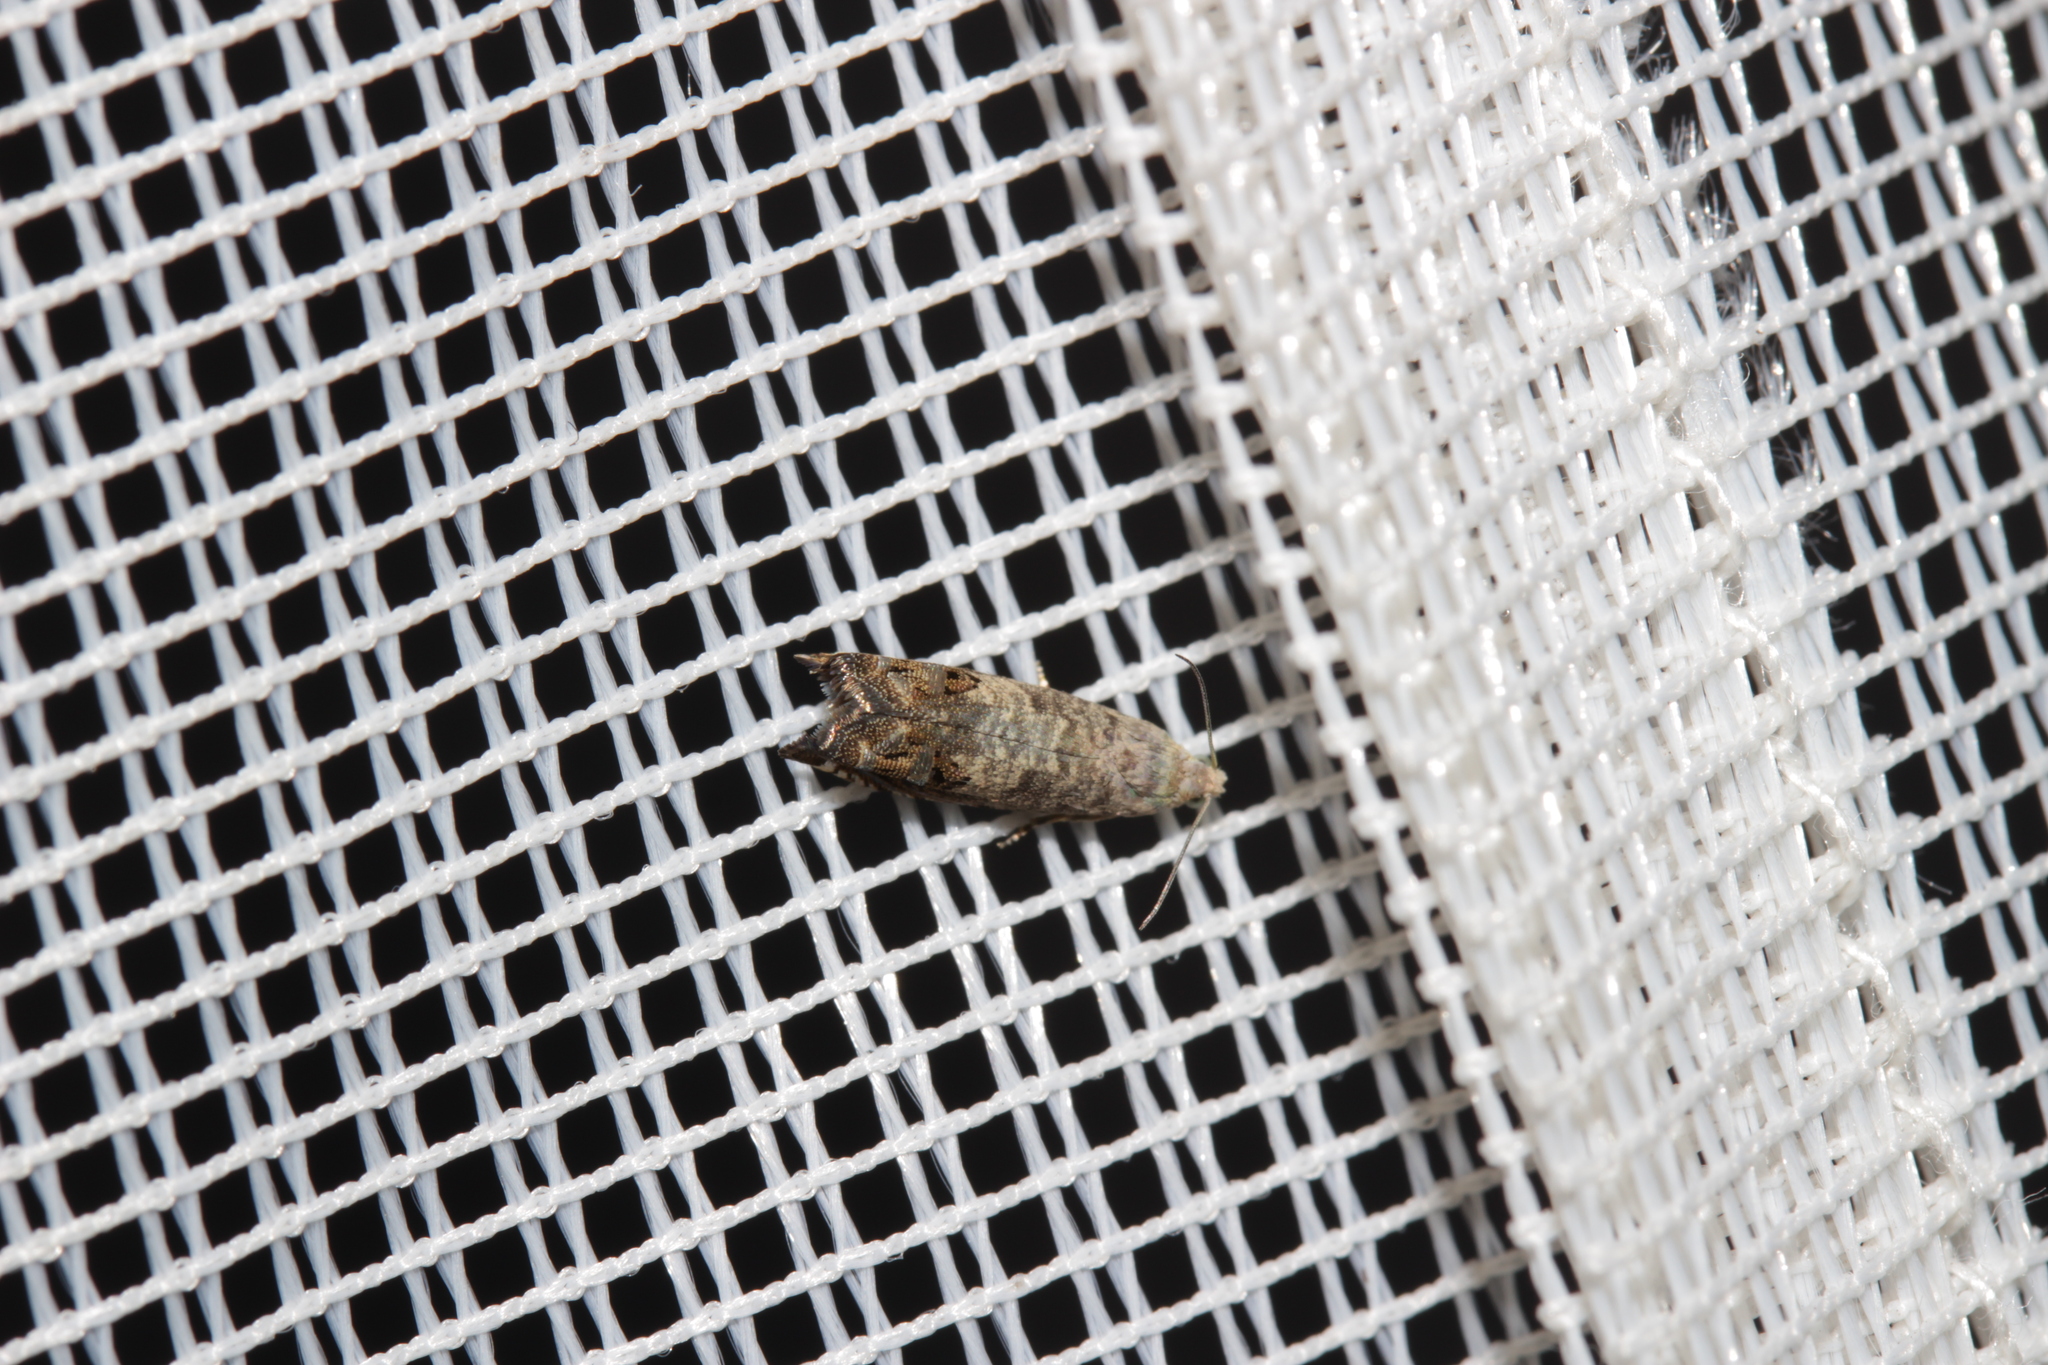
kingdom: Animalia
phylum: Arthropoda
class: Insecta
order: Lepidoptera
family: Tortricidae
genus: Cydia
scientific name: Cydia pomonella
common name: Codling moth
